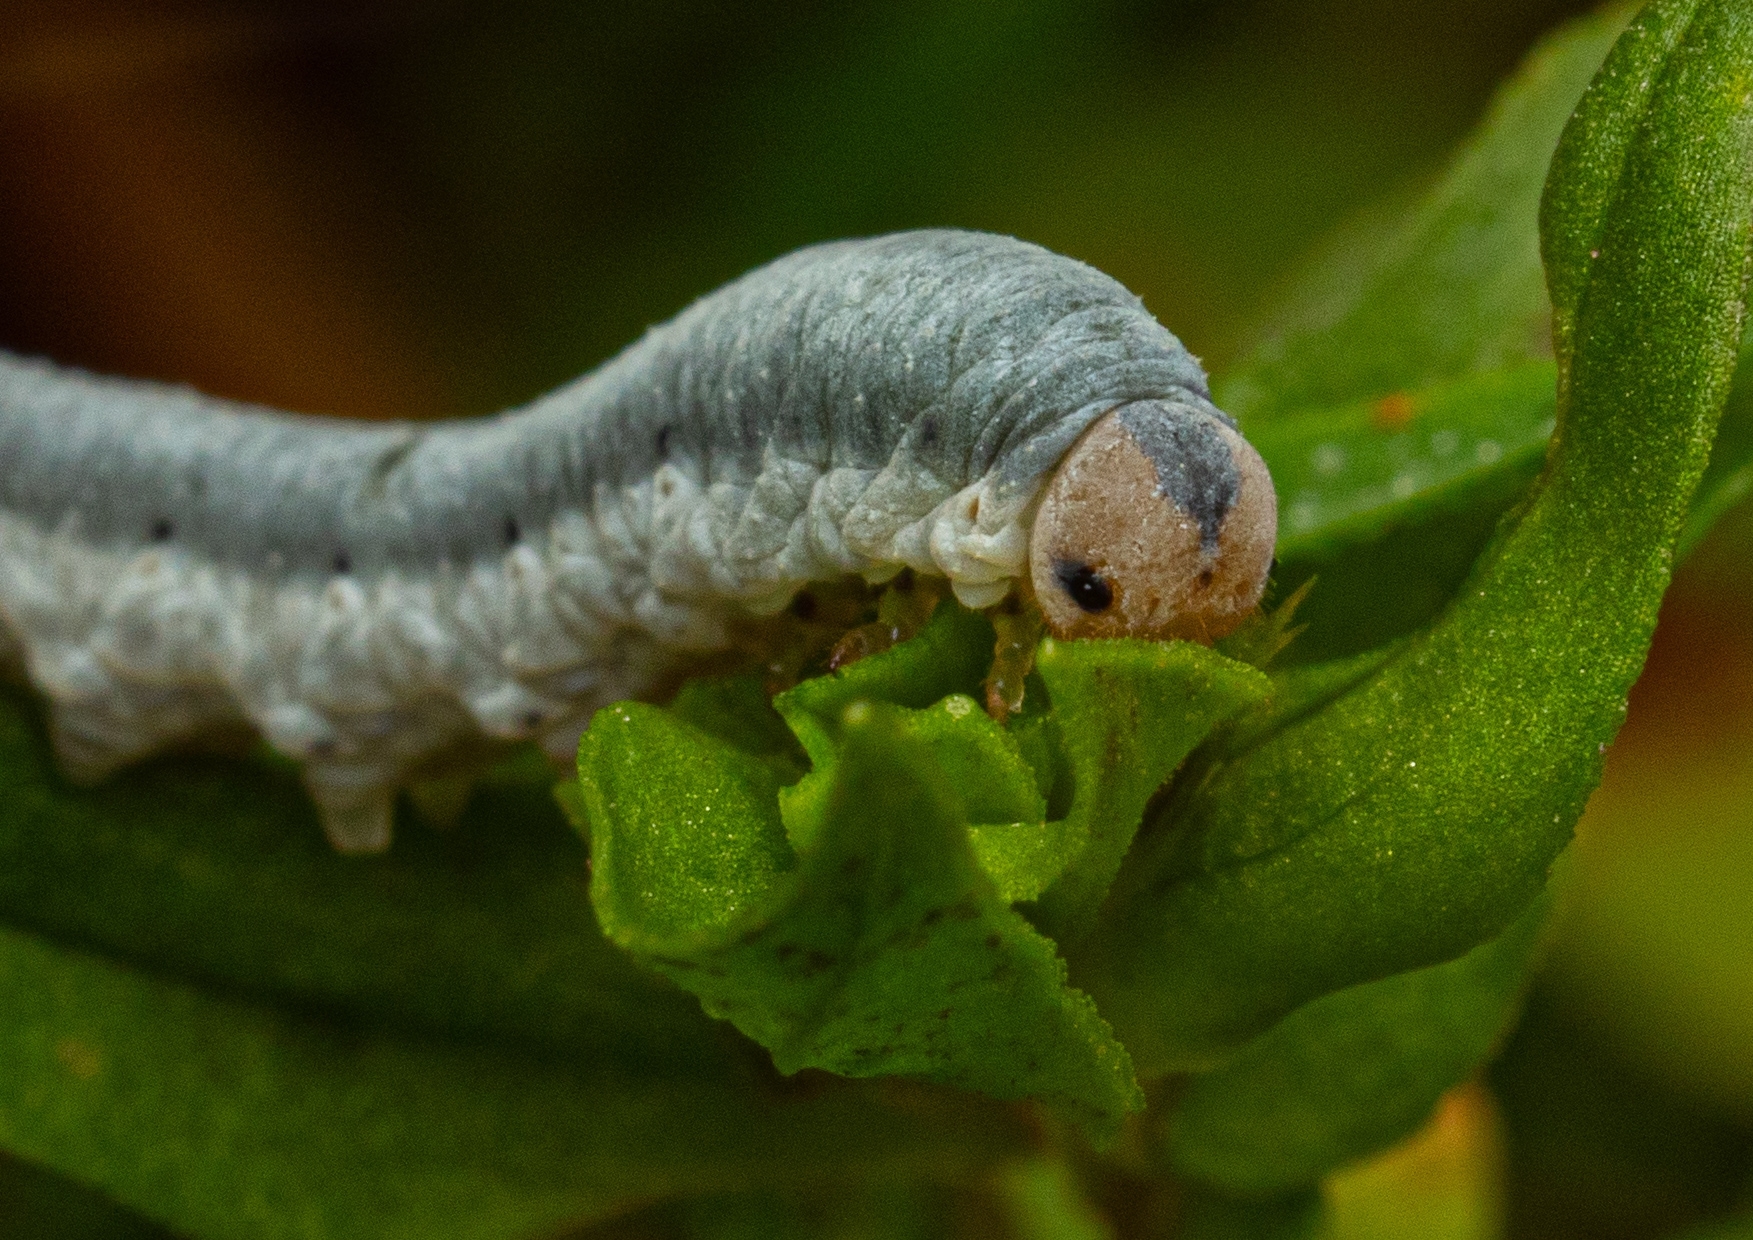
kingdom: Animalia
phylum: Arthropoda
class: Insecta
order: Hymenoptera
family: Tenthredinidae
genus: Monostegia
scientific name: Monostegia abdominalis
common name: Tenthredid wasp
